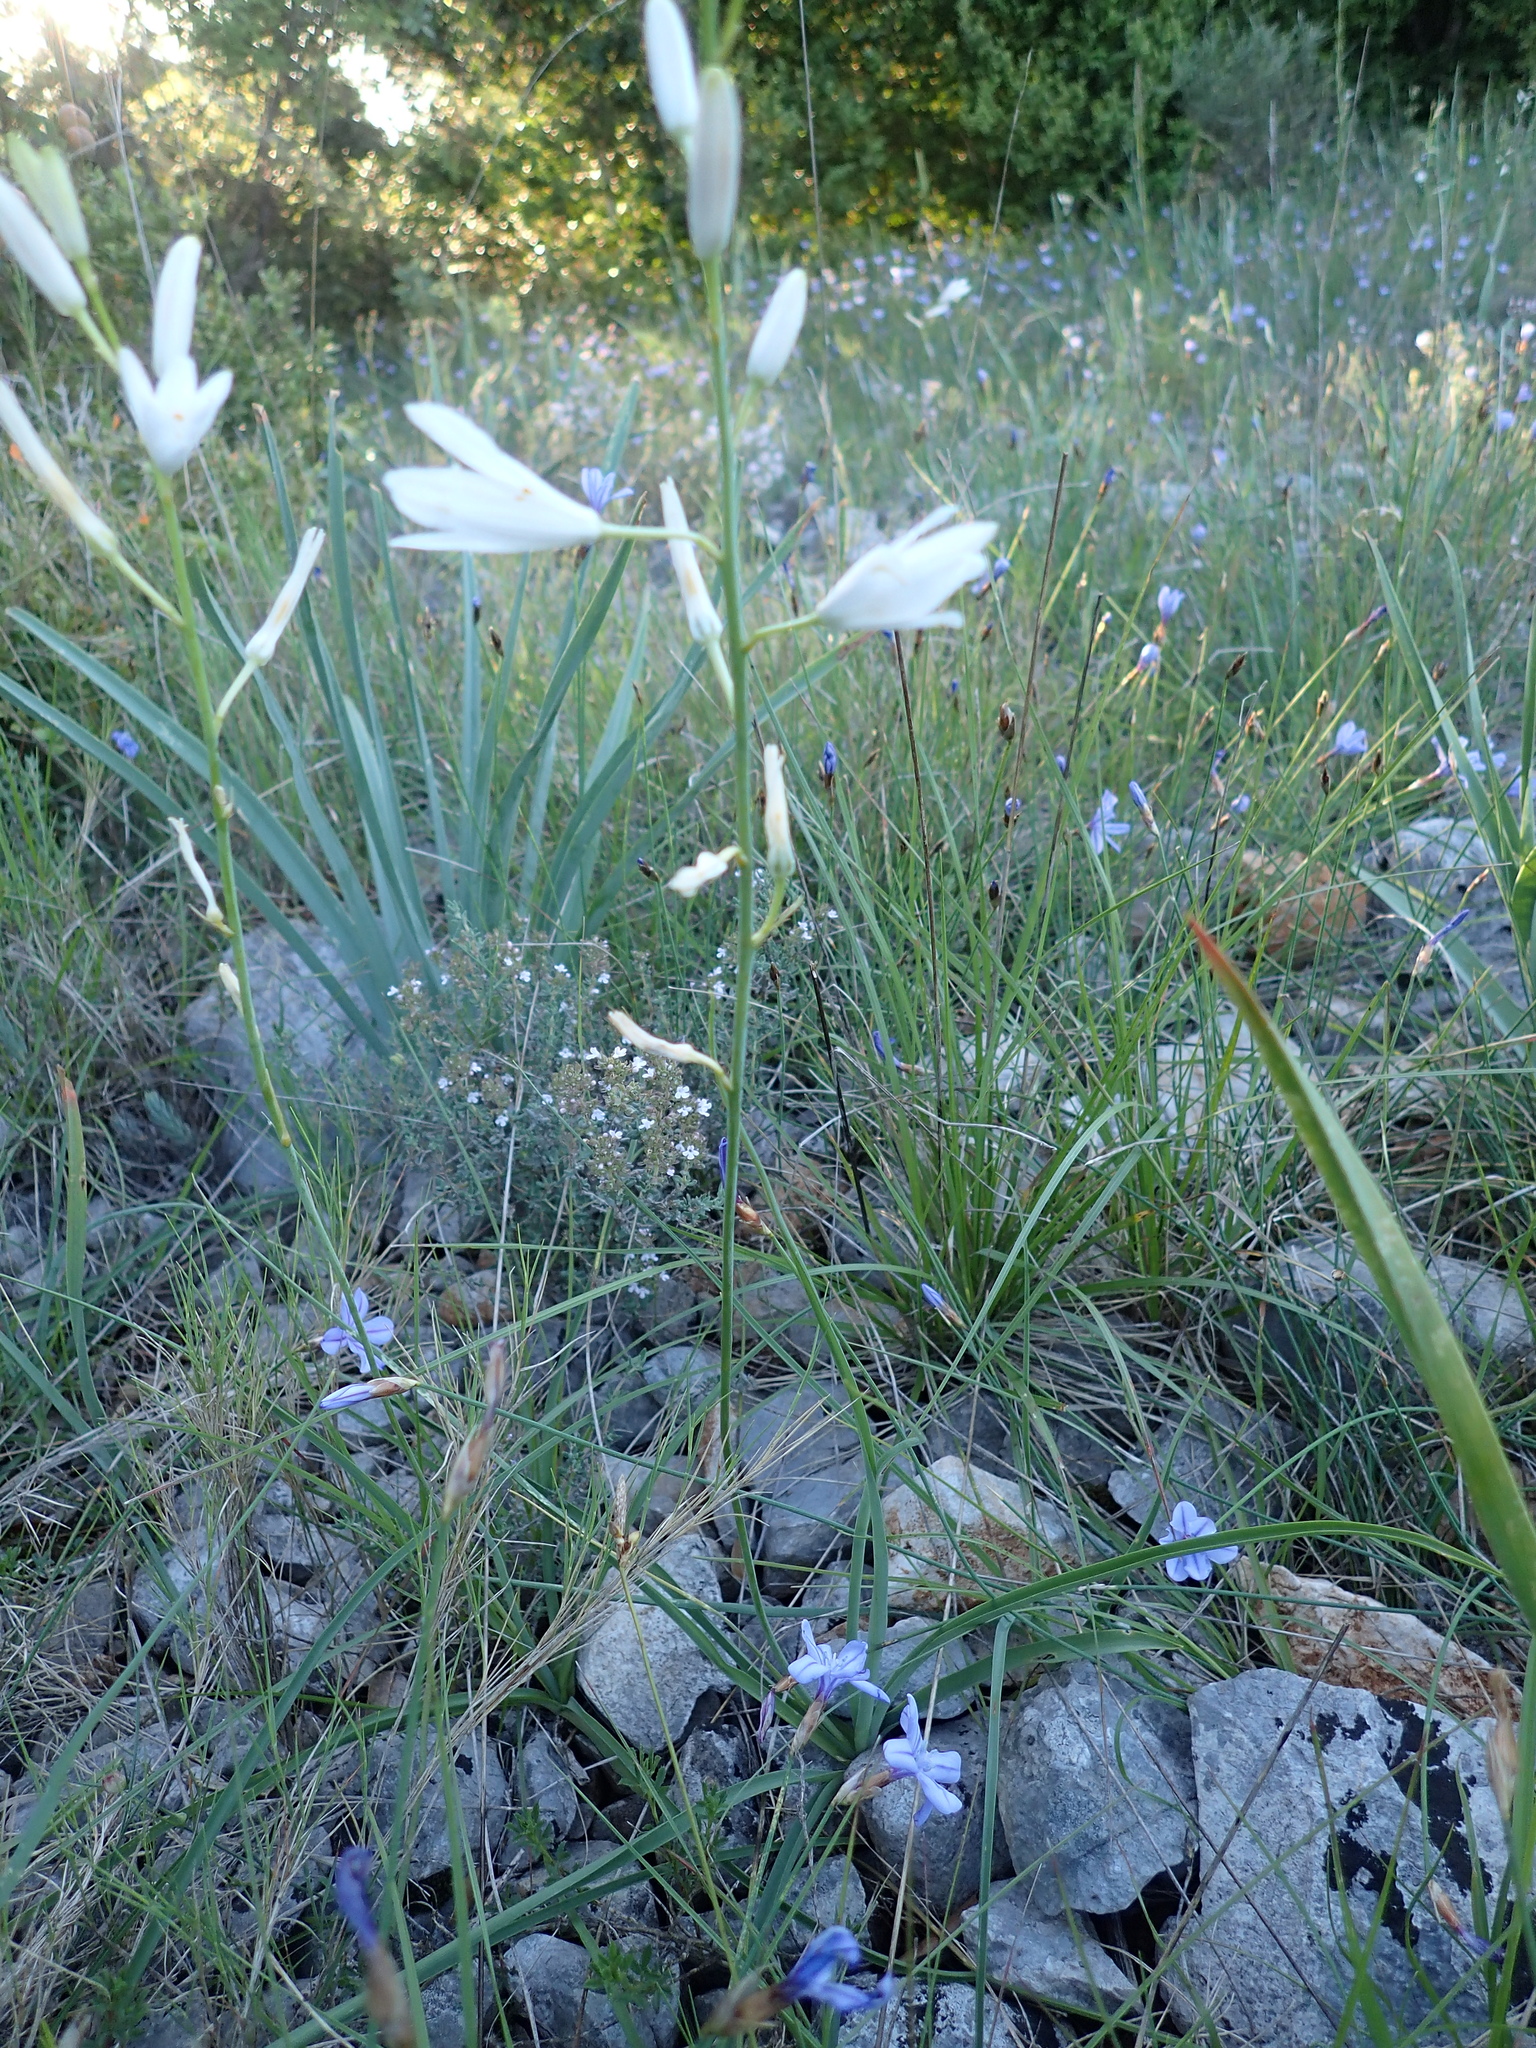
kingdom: Plantae
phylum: Tracheophyta
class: Liliopsida
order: Asparagales
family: Asparagaceae
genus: Anthericum
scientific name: Anthericum liliago
